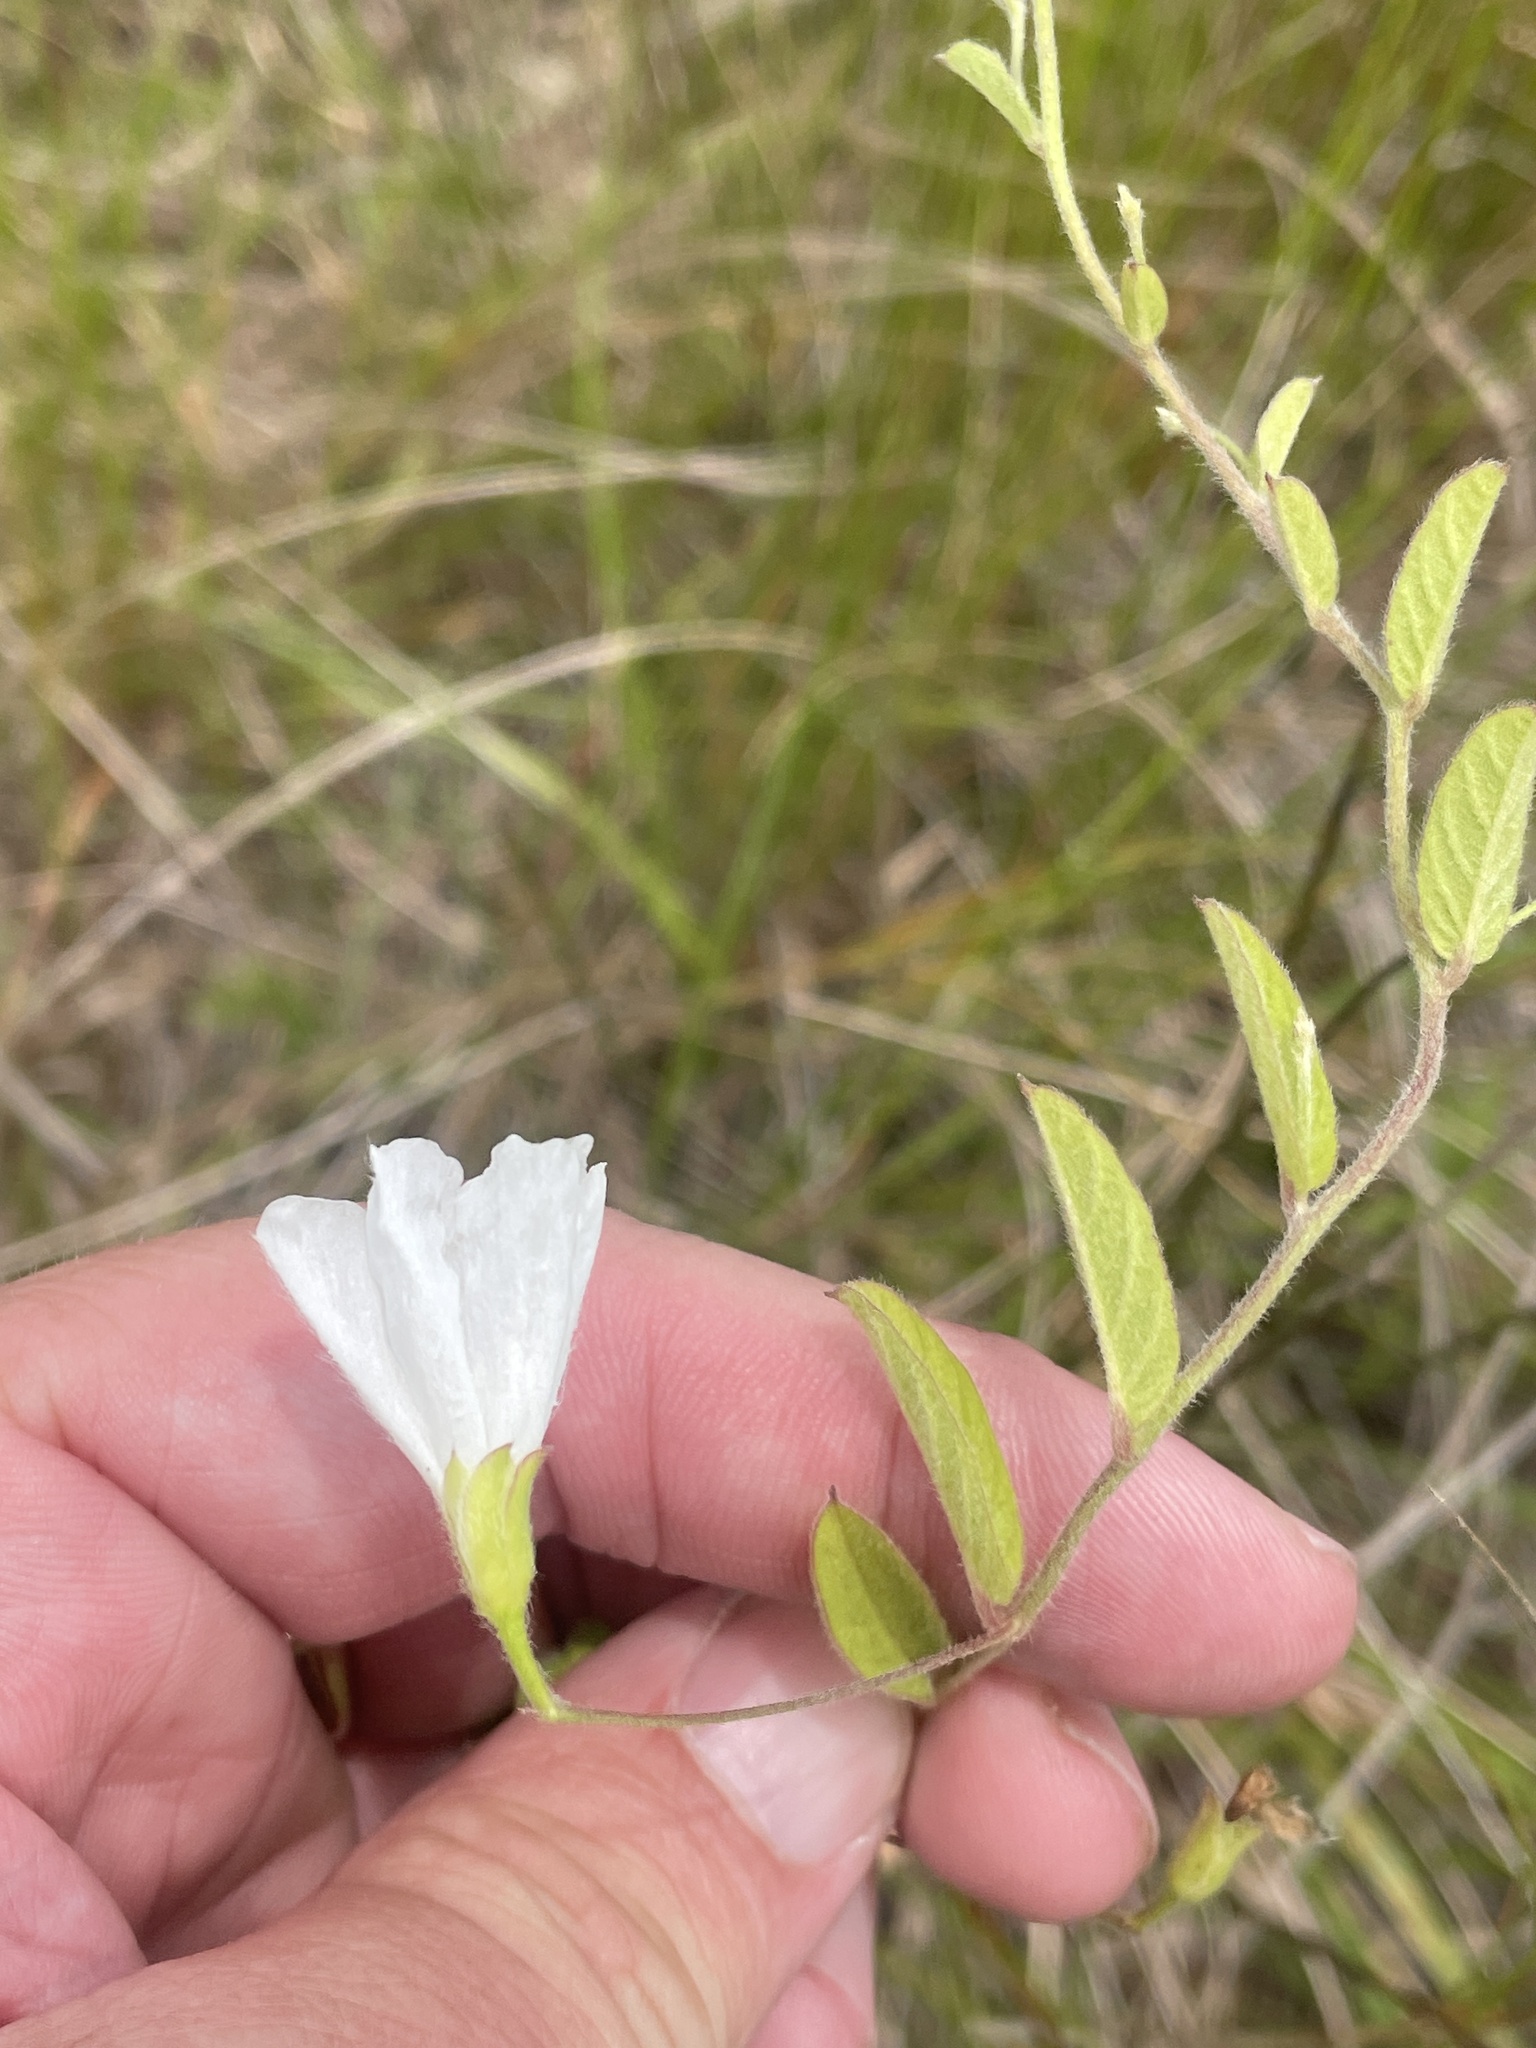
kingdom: Plantae
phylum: Tracheophyta
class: Magnoliopsida
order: Solanales
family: Convolvulaceae
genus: Stylisma
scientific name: Stylisma villosa
